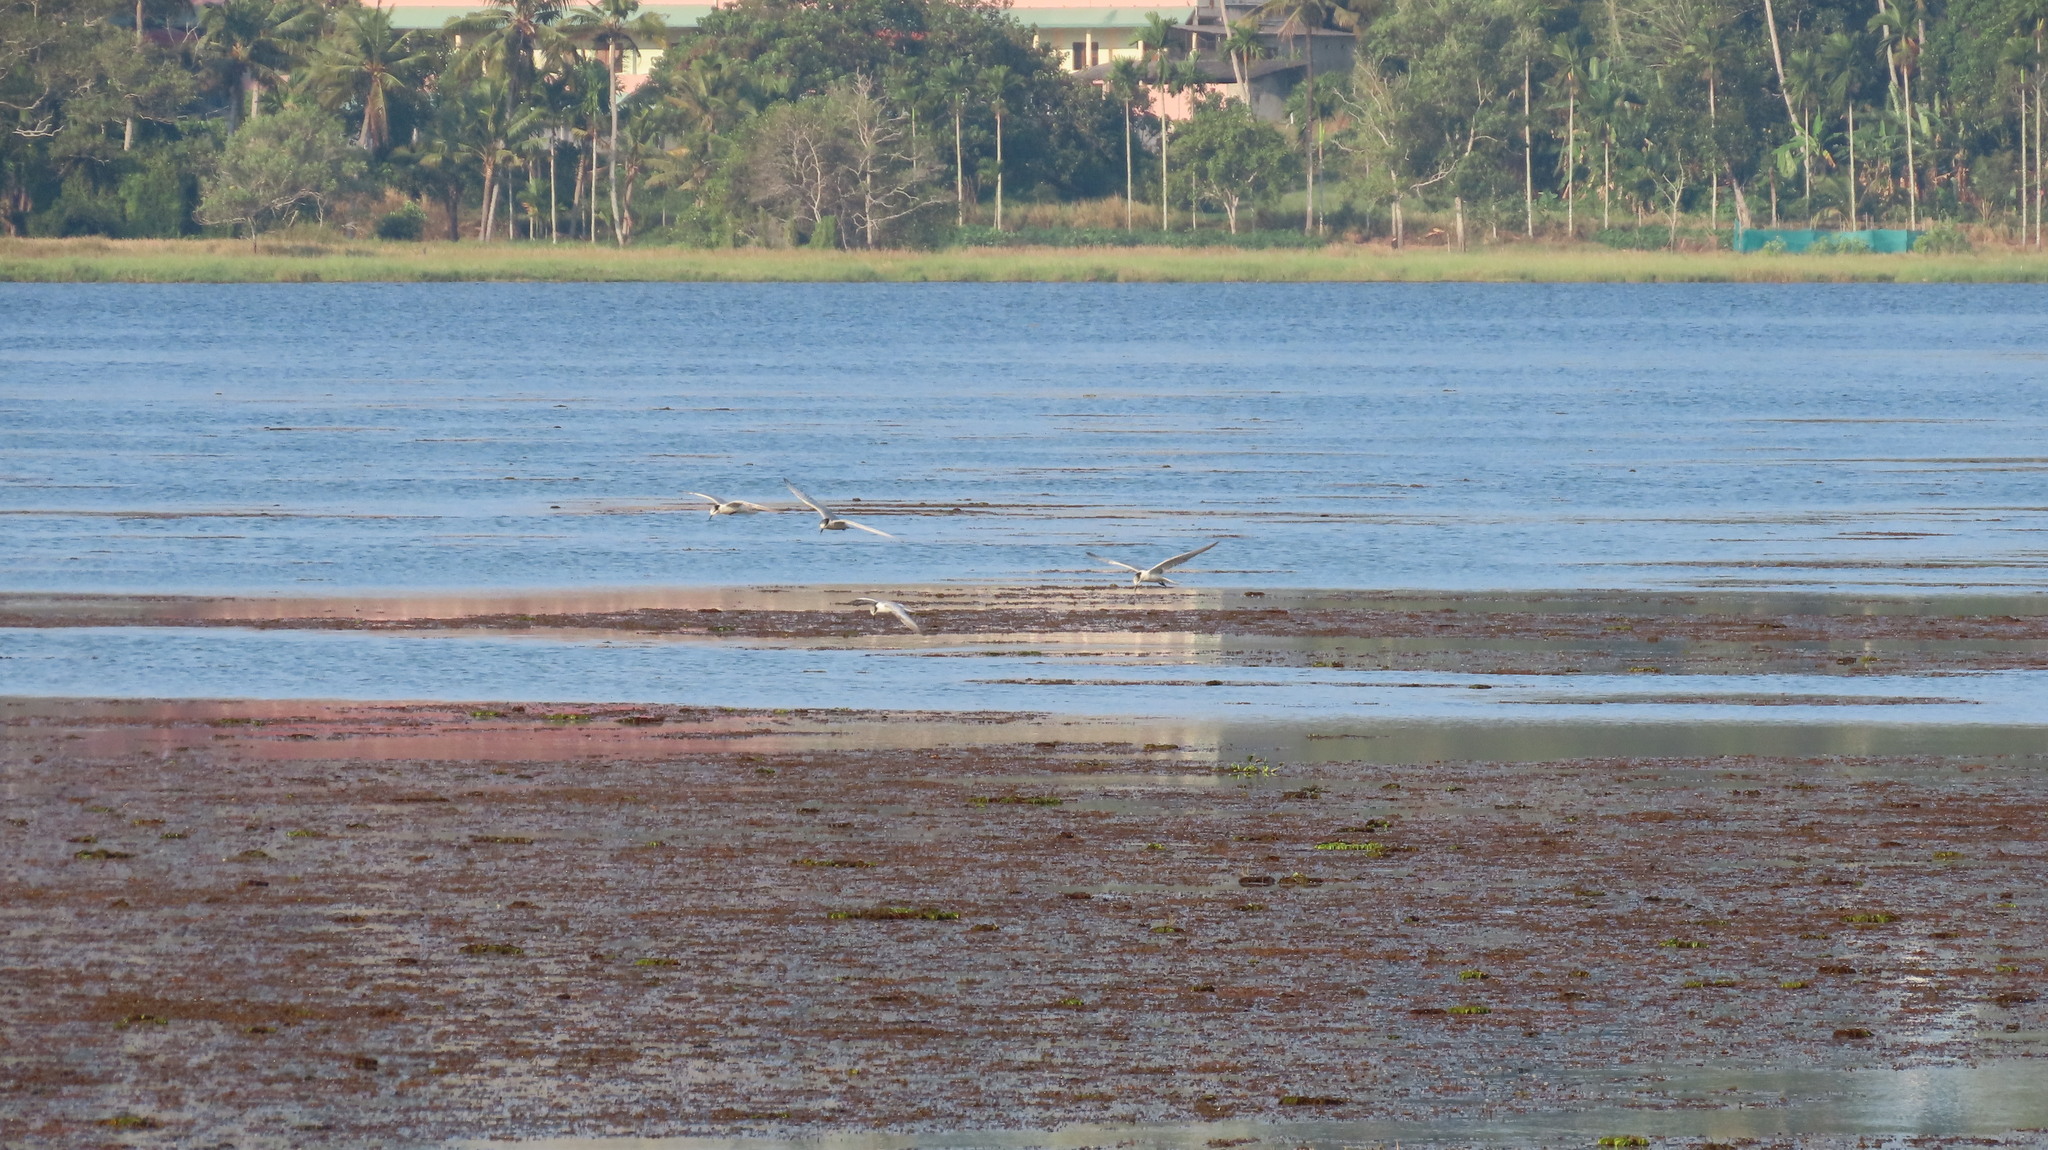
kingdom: Animalia
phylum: Chordata
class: Aves
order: Charadriiformes
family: Laridae
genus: Chlidonias
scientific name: Chlidonias hybrida
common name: Whiskered tern
